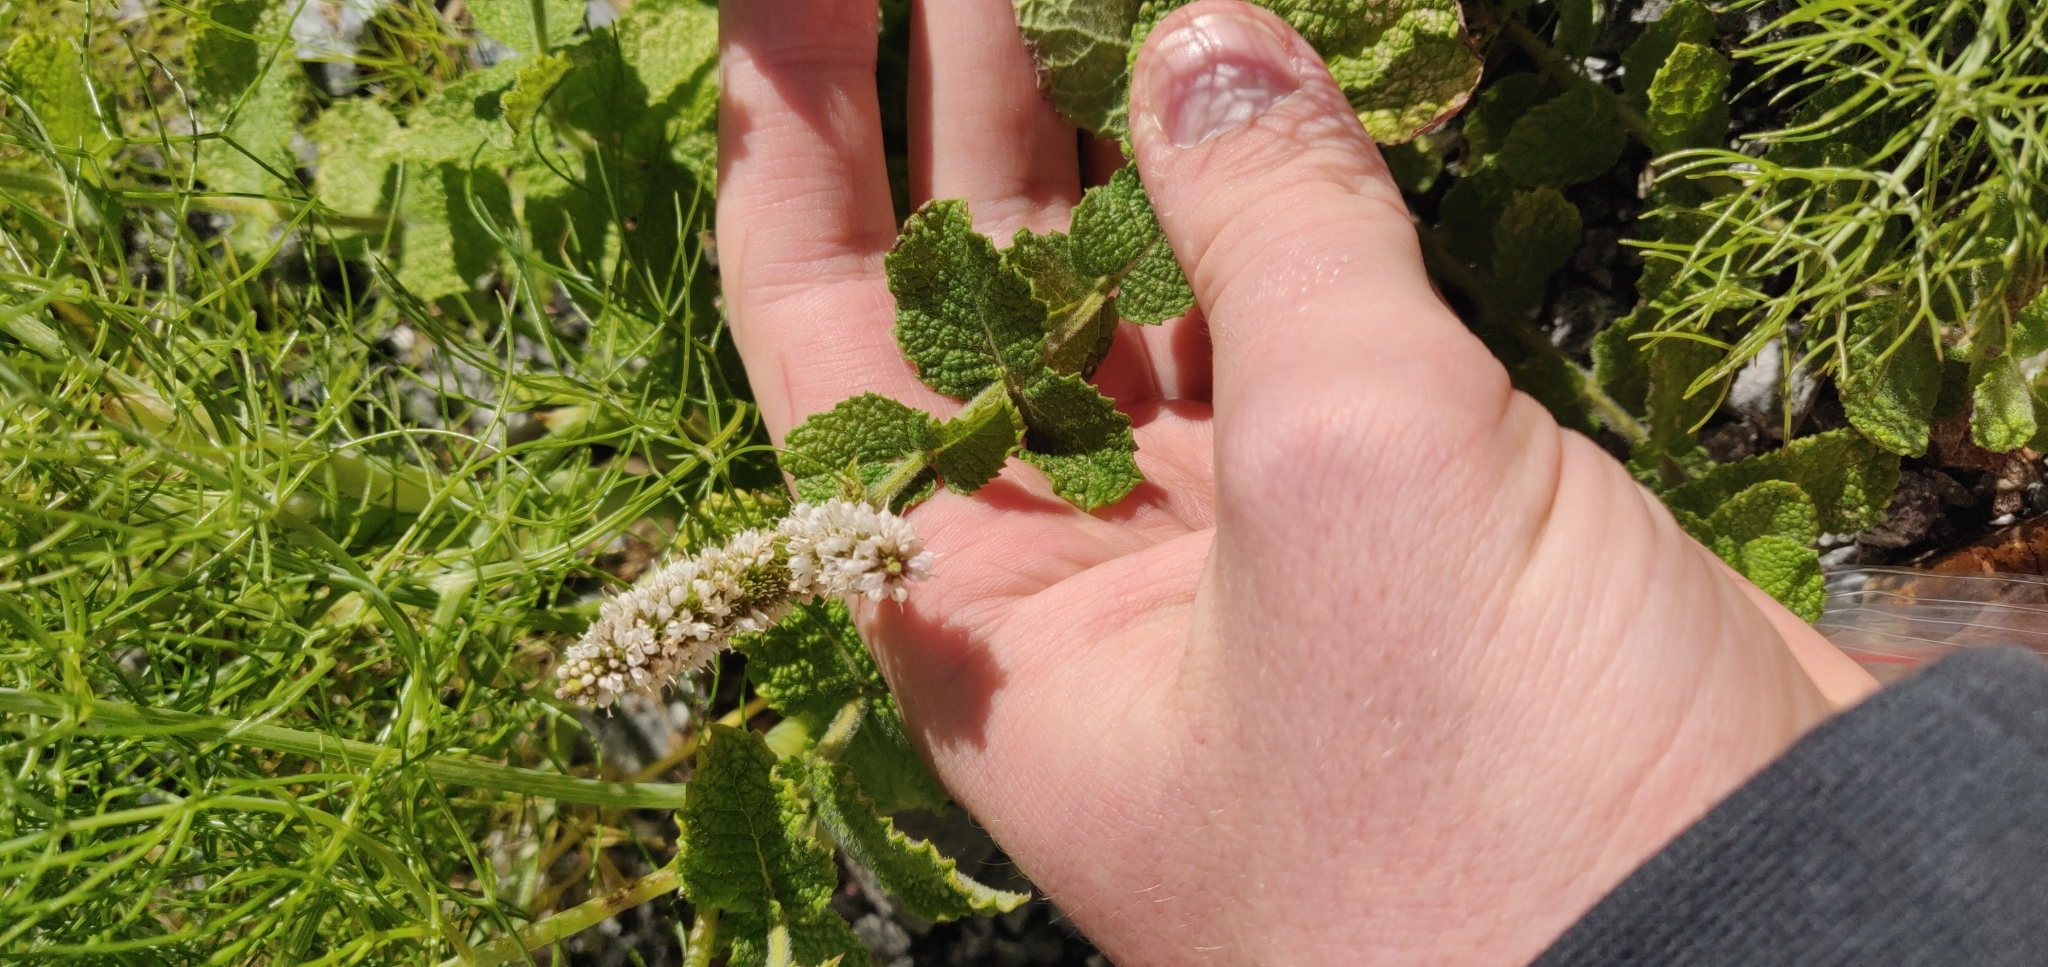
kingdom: Plantae
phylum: Tracheophyta
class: Magnoliopsida
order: Lamiales
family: Lamiaceae
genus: Mentha
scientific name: Mentha suaveolens
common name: Apple mint
